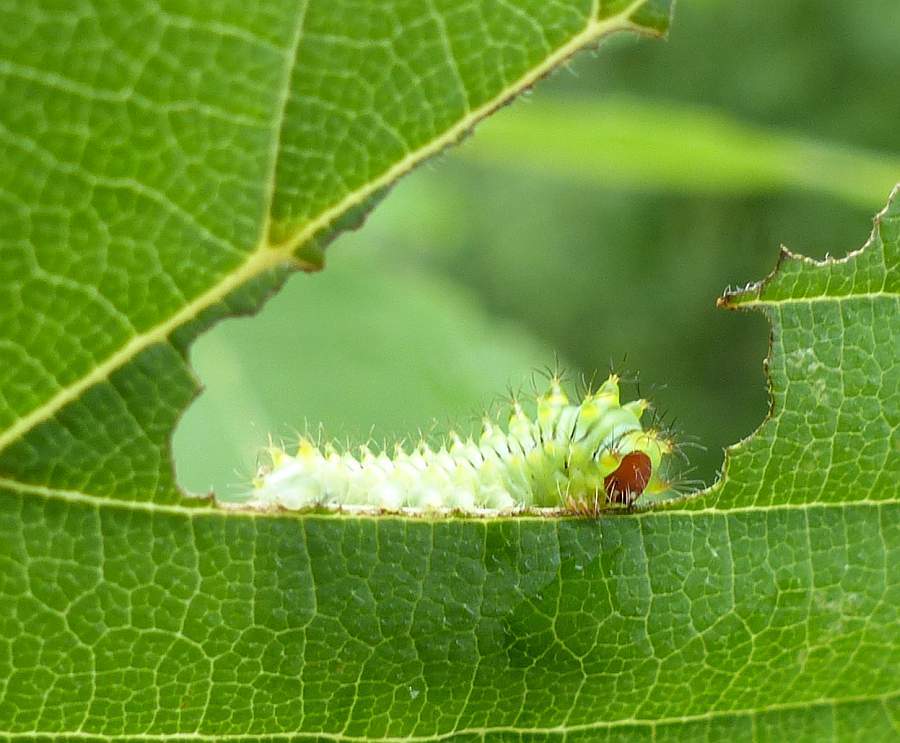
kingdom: Animalia
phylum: Arthropoda
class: Insecta
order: Lepidoptera
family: Saturniidae
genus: Antheraea
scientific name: Antheraea polyphemus
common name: Polyphemus moth
